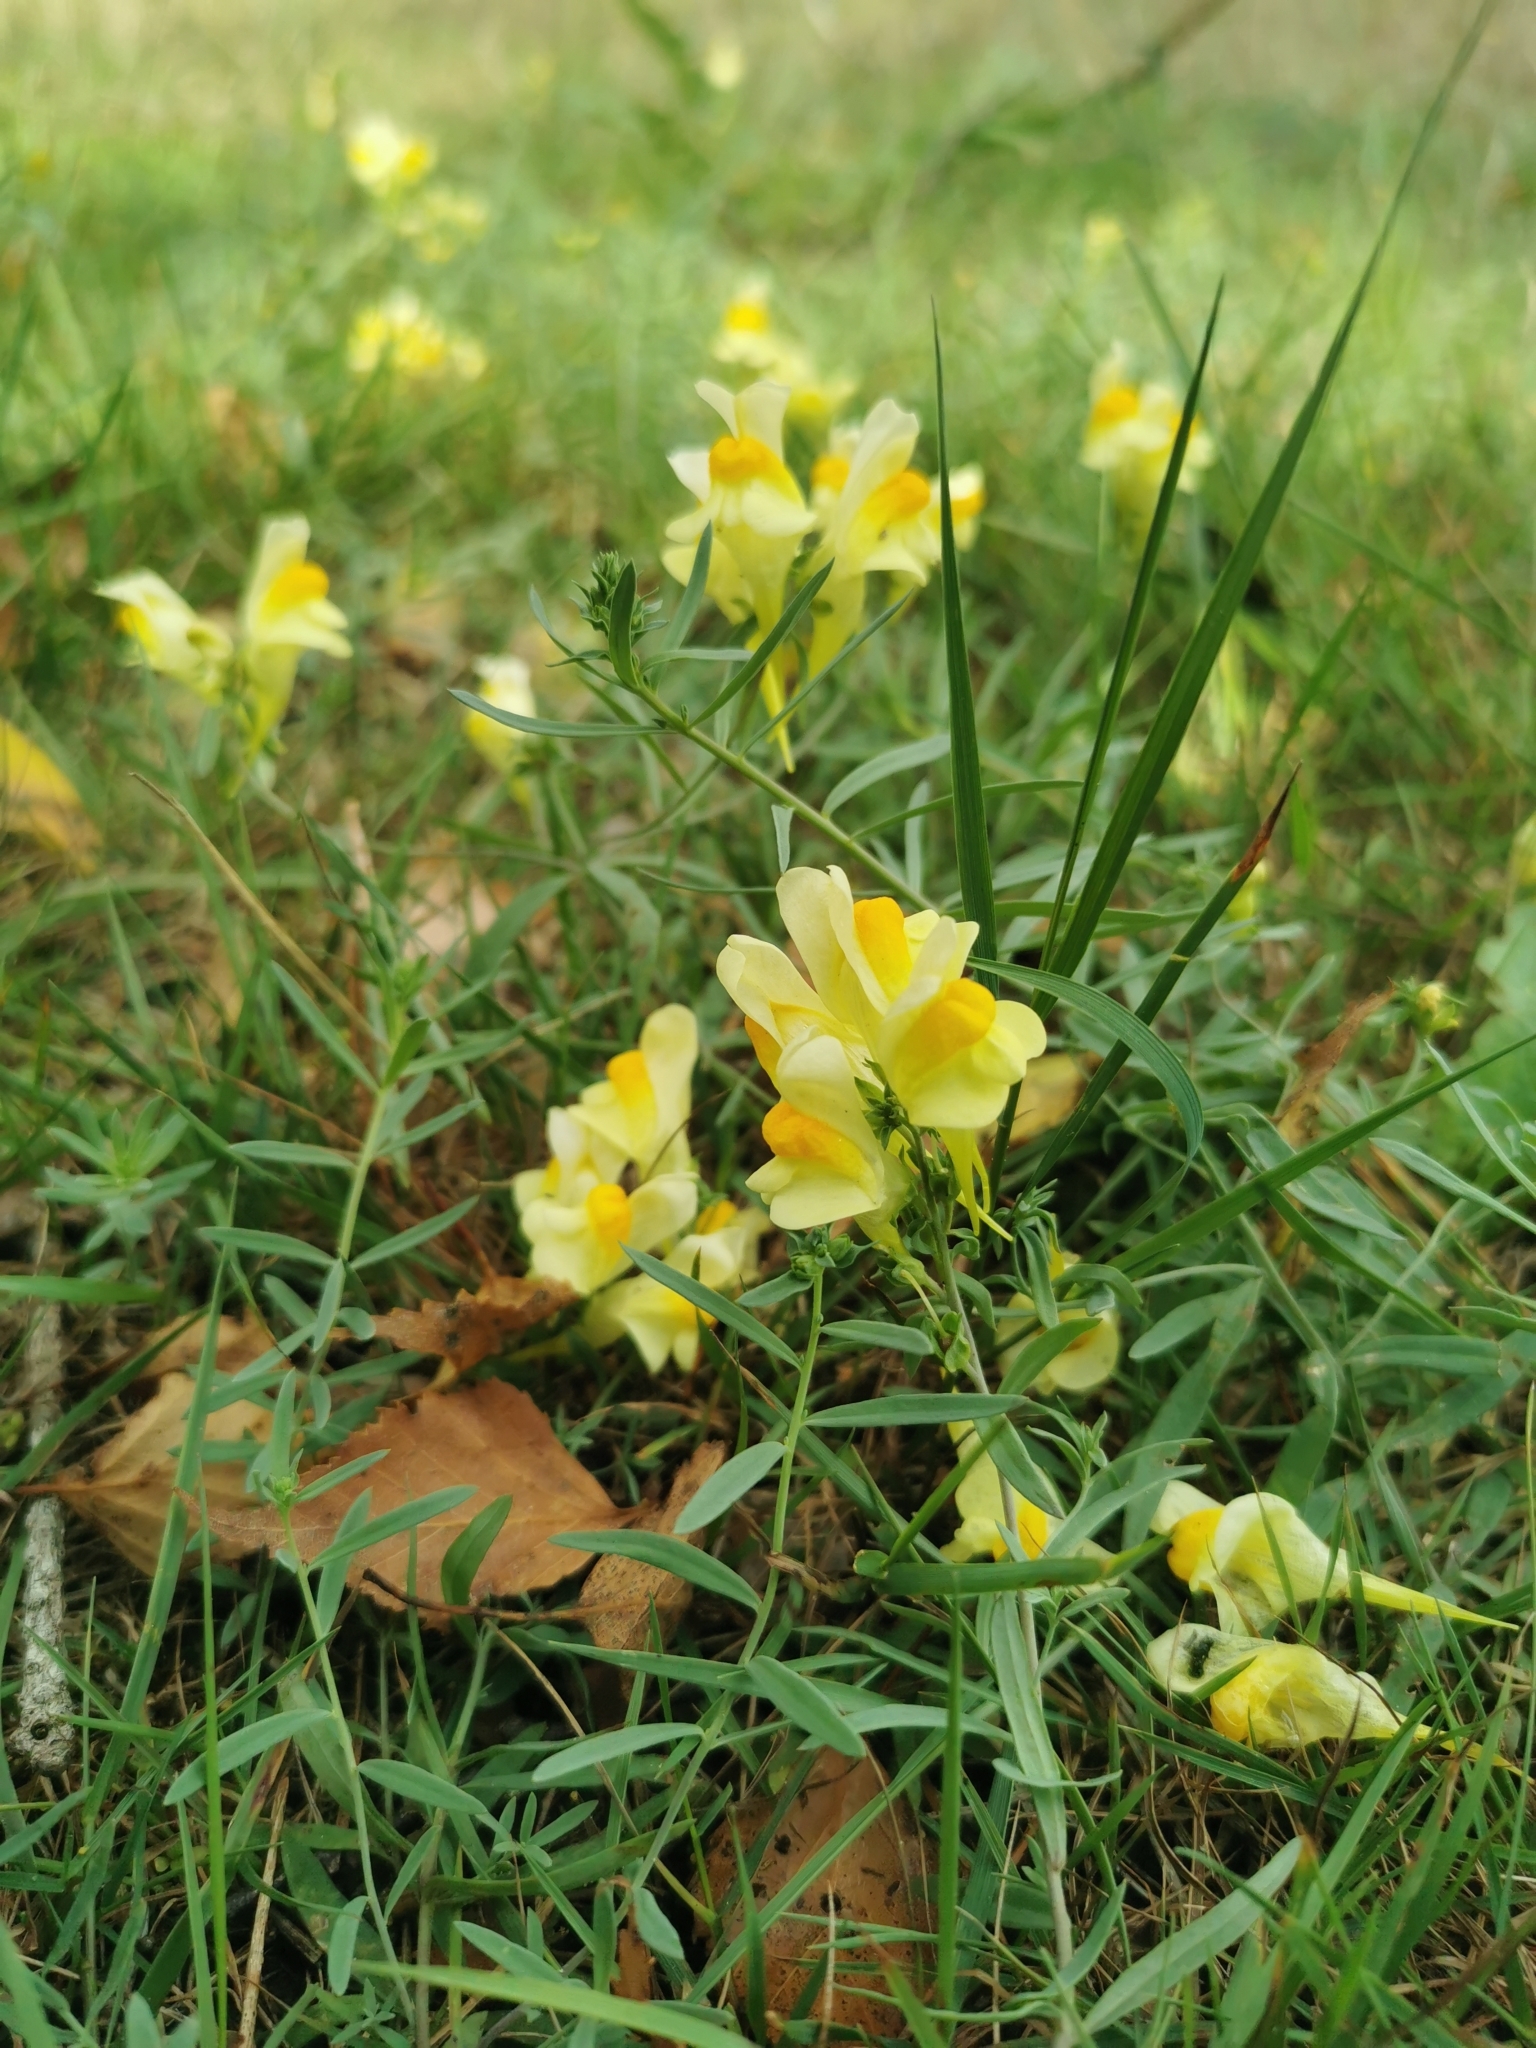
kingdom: Plantae
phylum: Tracheophyta
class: Magnoliopsida
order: Lamiales
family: Plantaginaceae
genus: Linaria
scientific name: Linaria vulgaris
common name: Butter and eggs
